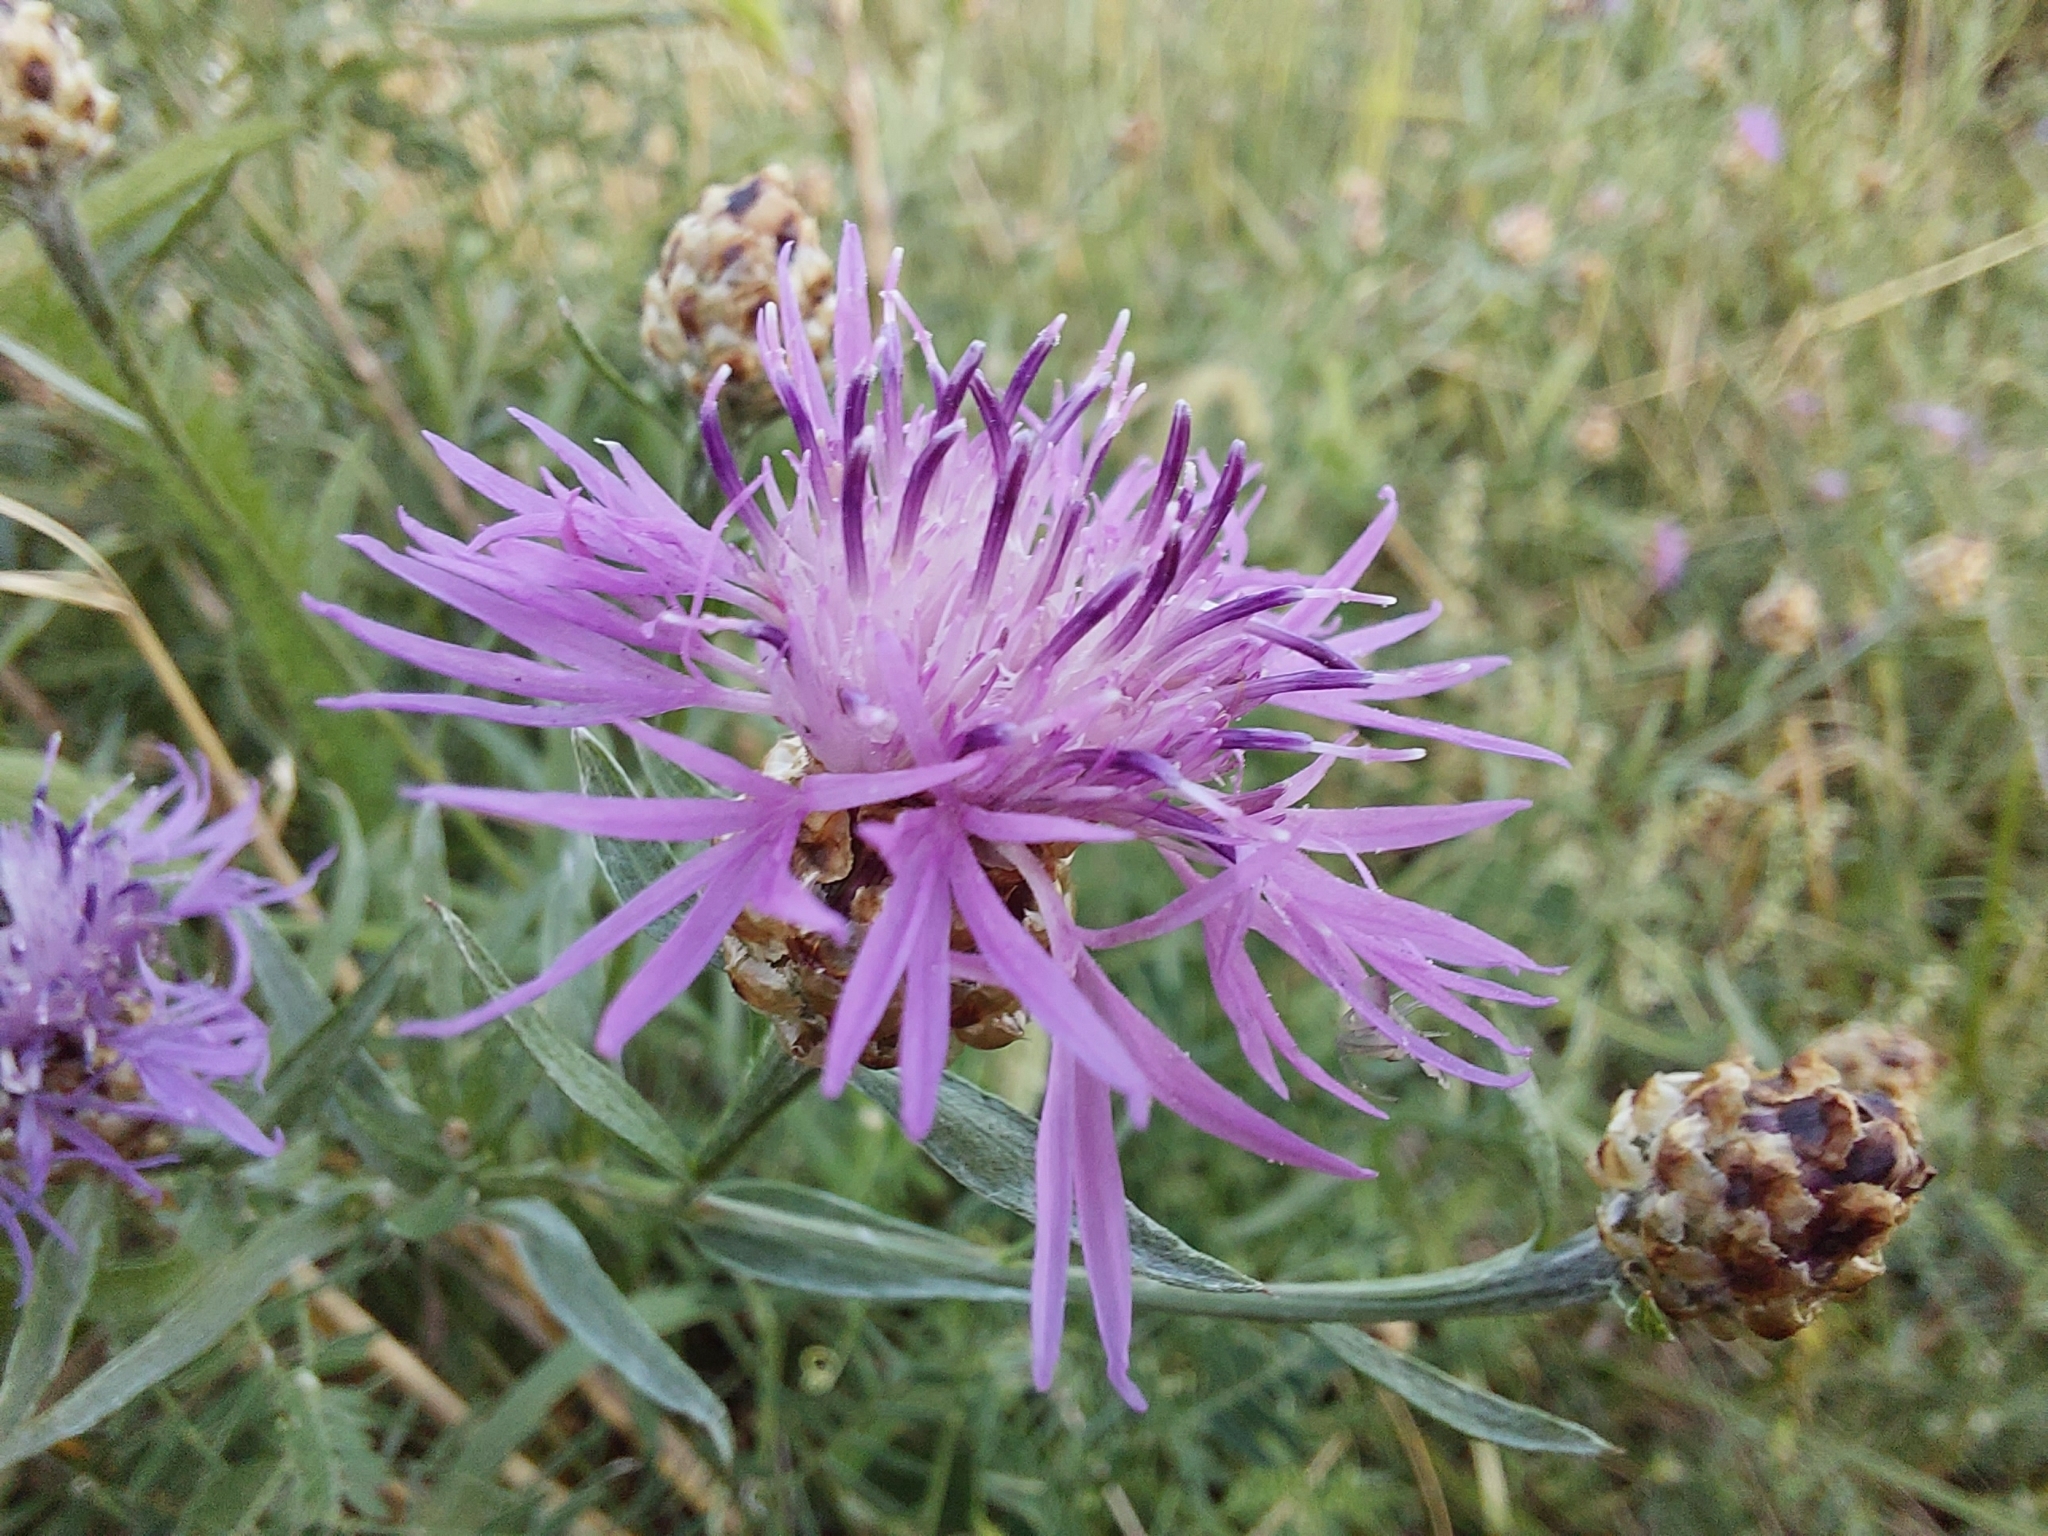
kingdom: Plantae
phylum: Tracheophyta
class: Magnoliopsida
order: Asterales
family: Asteraceae
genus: Centaurea
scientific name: Centaurea jacea
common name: Brown knapweed
